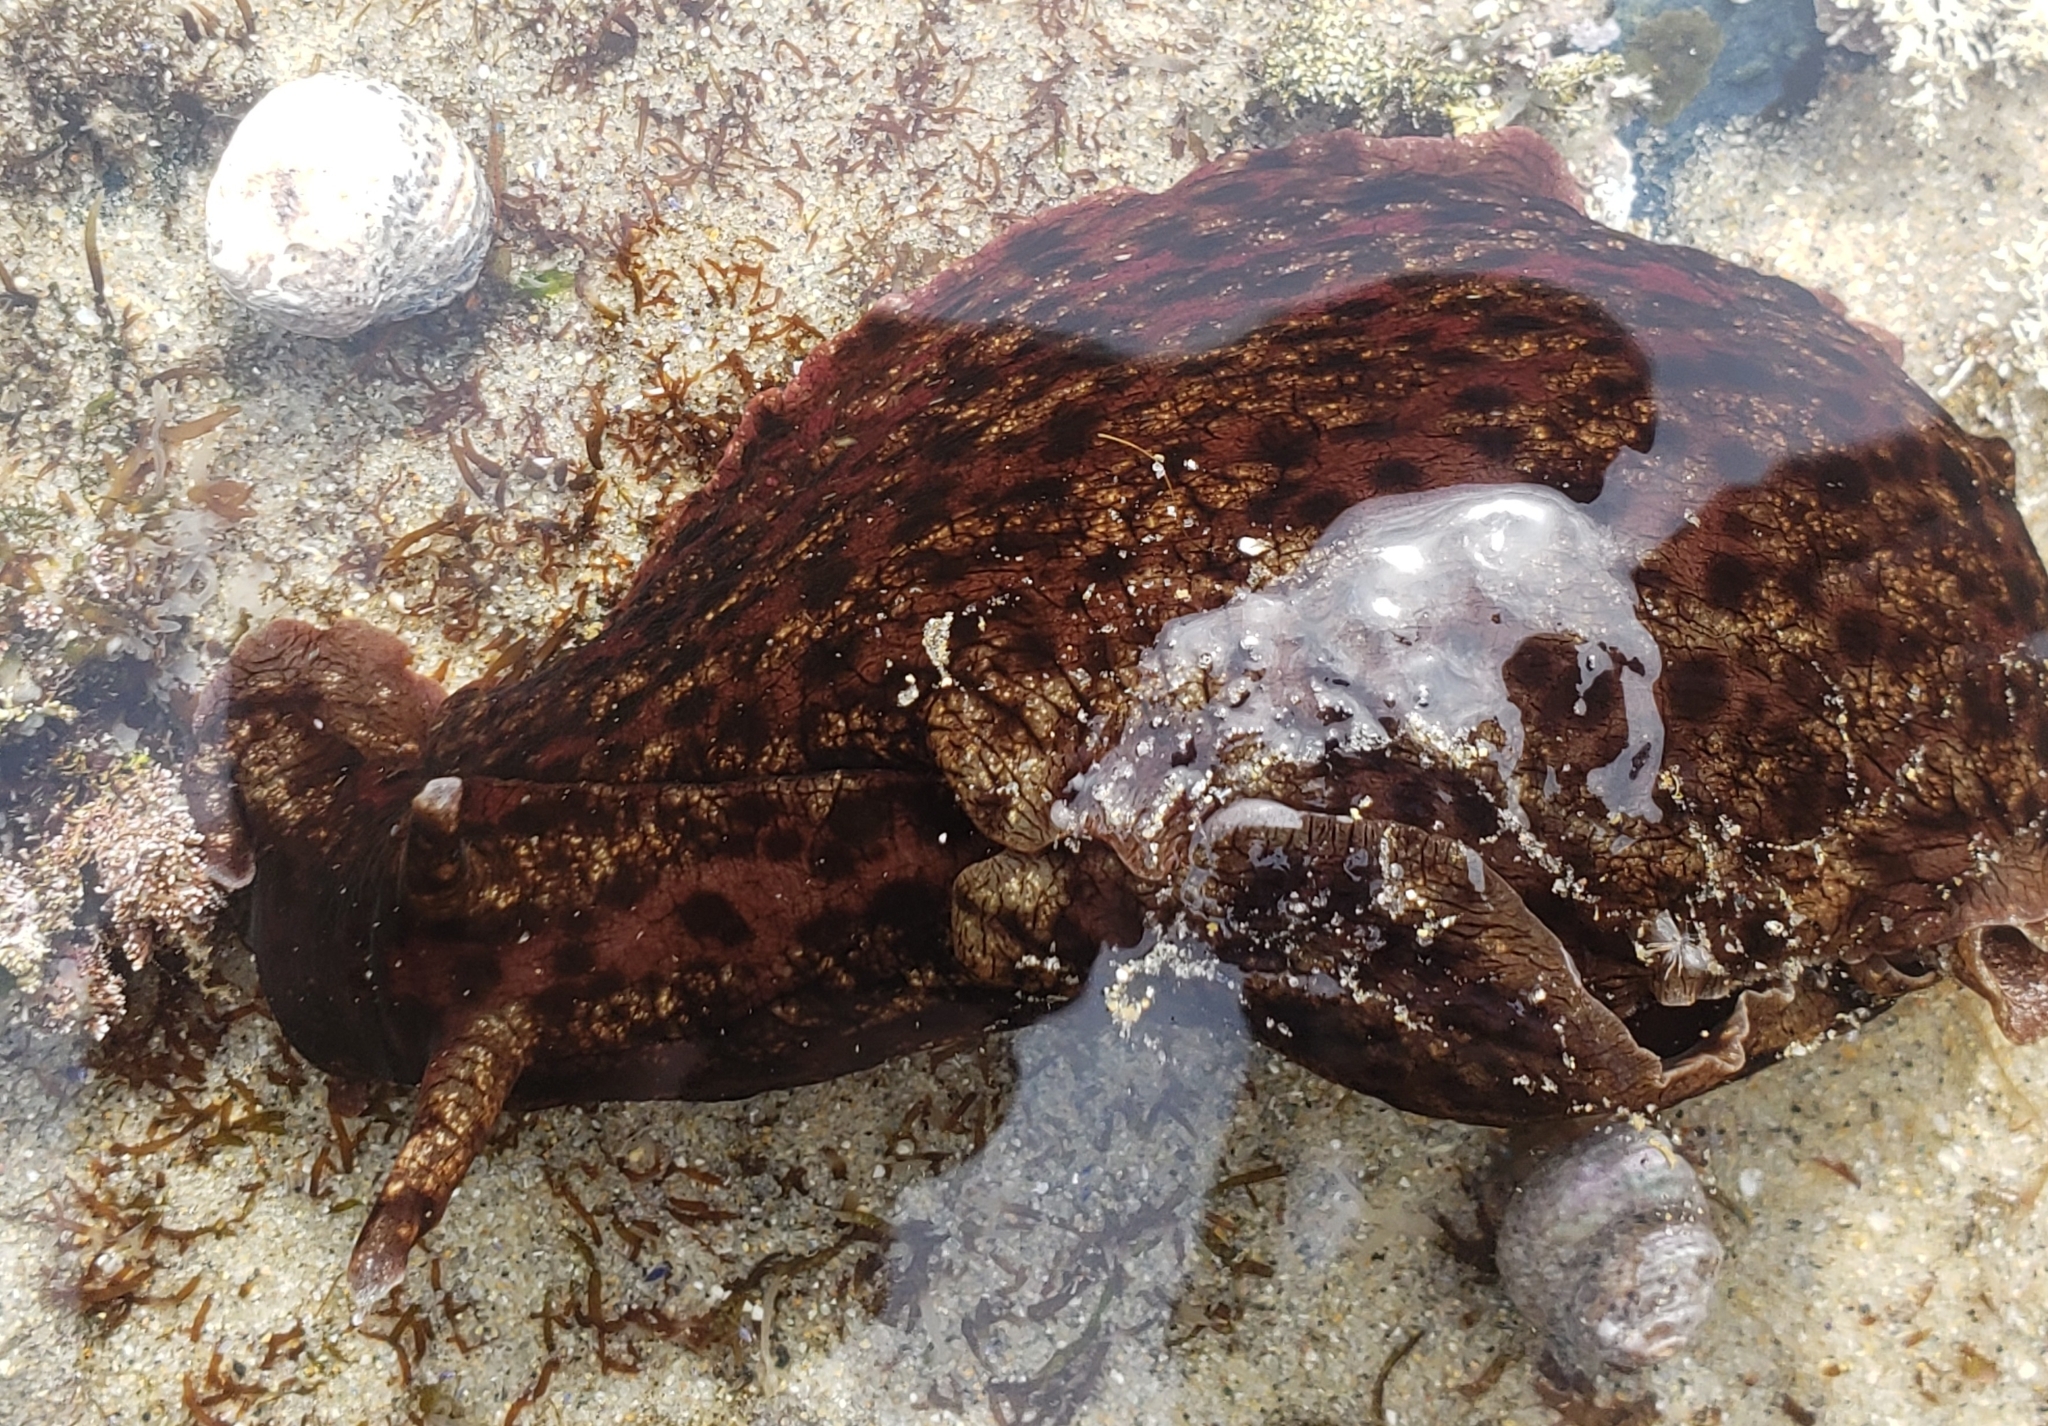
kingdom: Animalia
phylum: Mollusca
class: Gastropoda
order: Aplysiida
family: Aplysiidae
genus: Aplysia
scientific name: Aplysia californica
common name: California seahare
